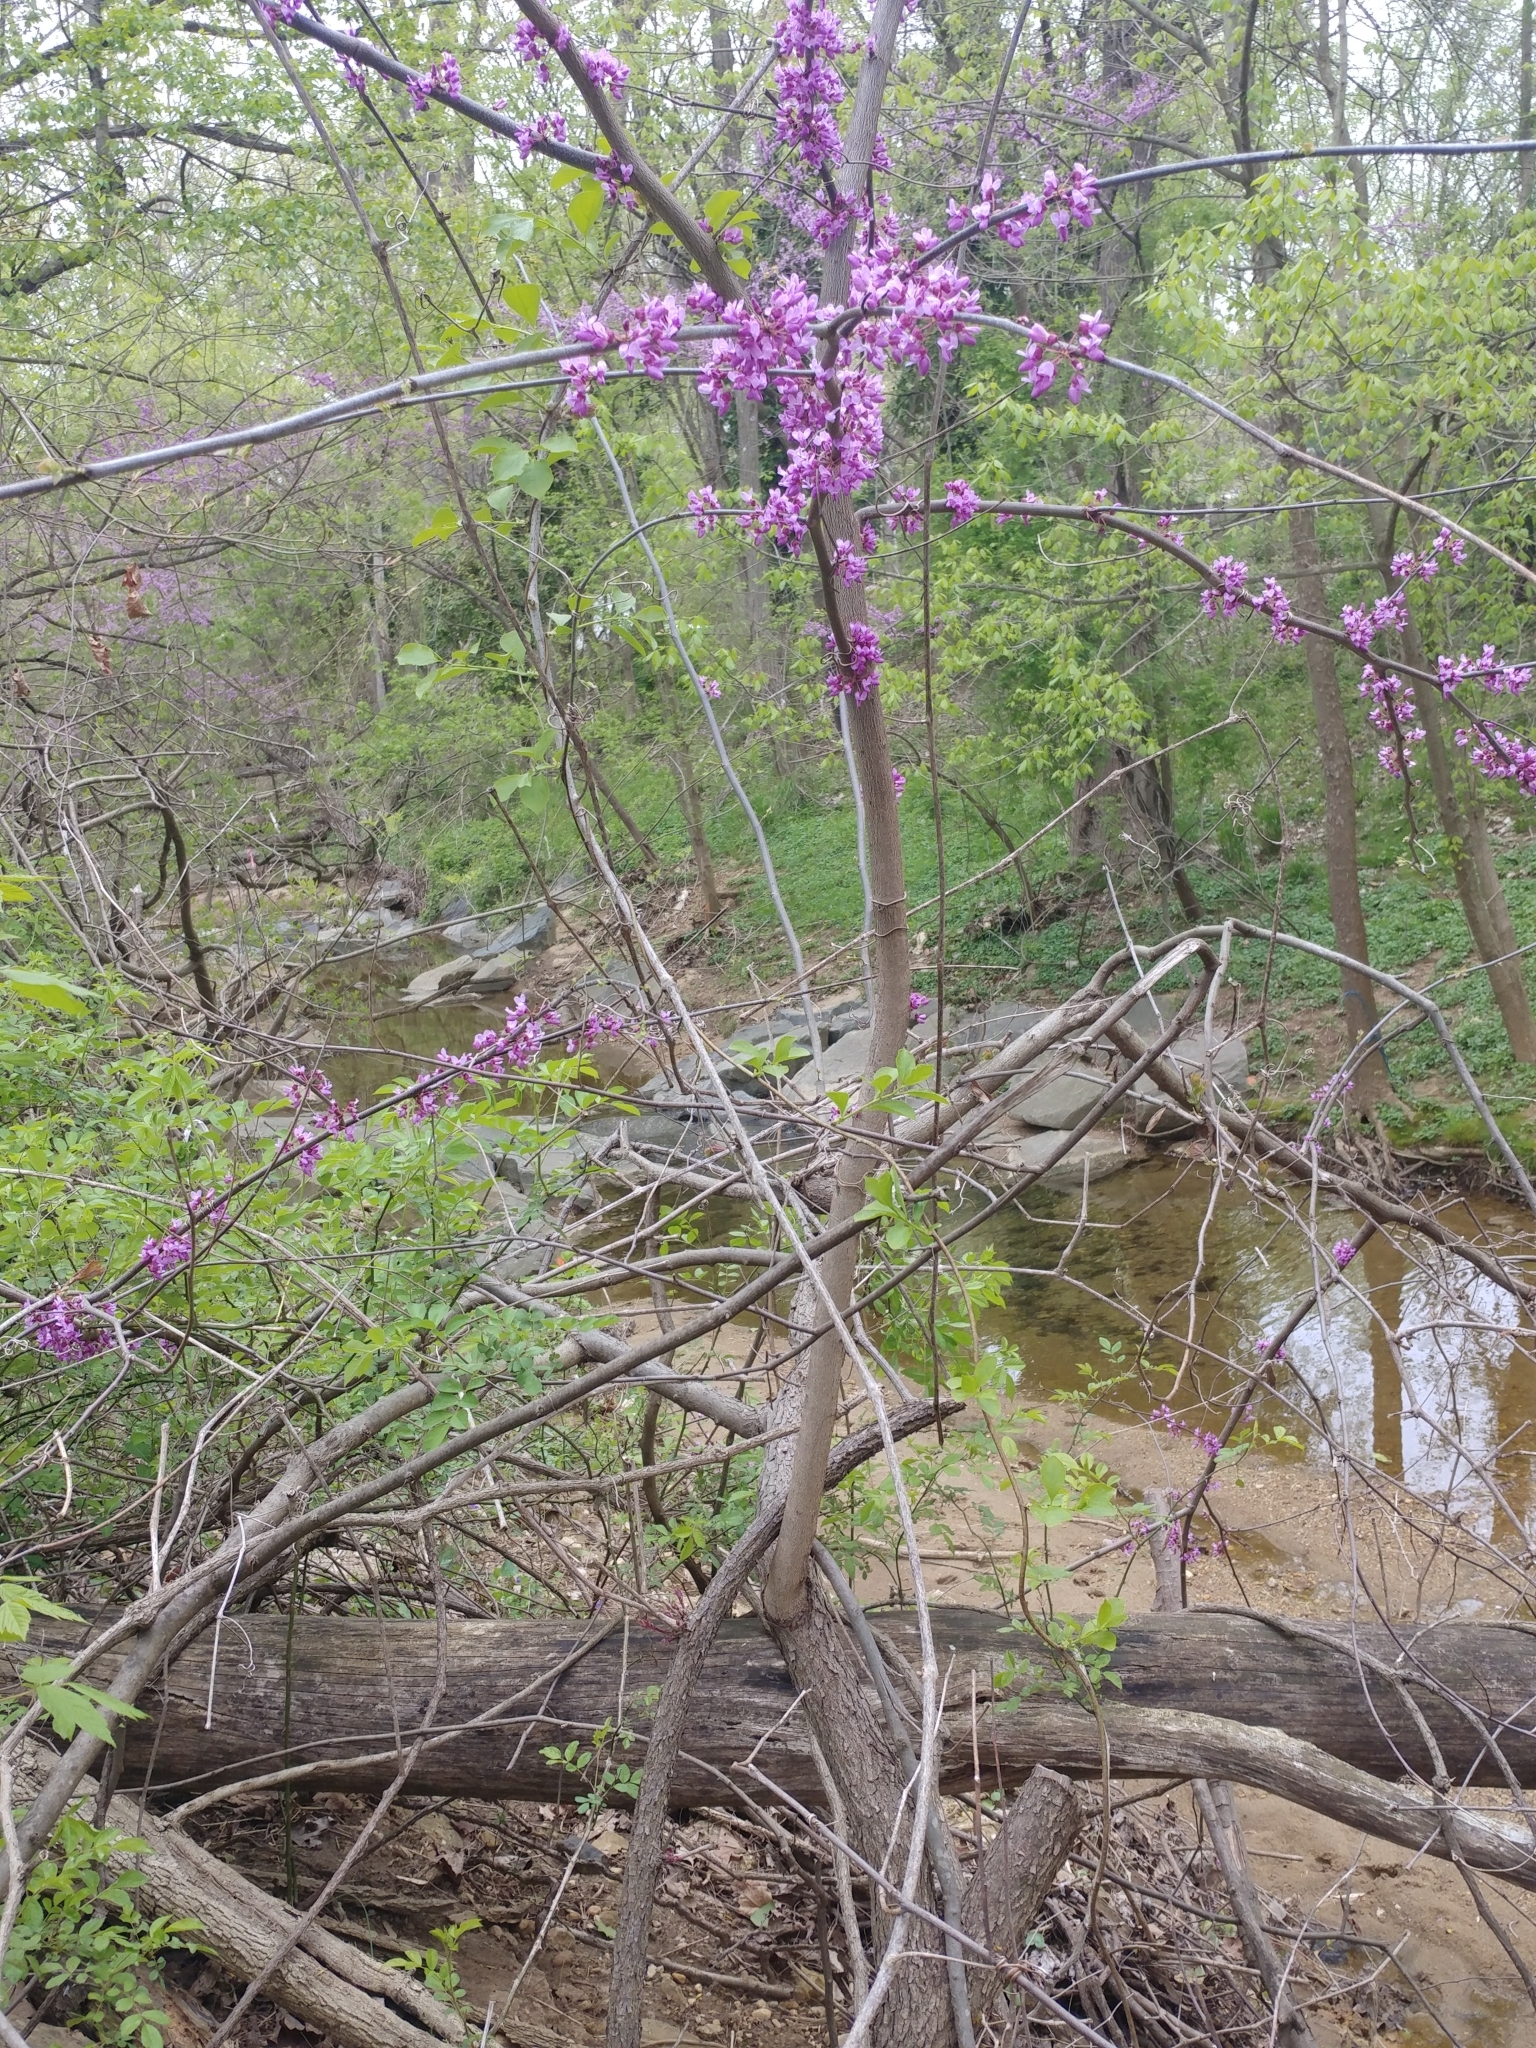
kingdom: Plantae
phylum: Tracheophyta
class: Magnoliopsida
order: Fabales
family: Fabaceae
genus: Cercis
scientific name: Cercis canadensis
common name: Eastern redbud
